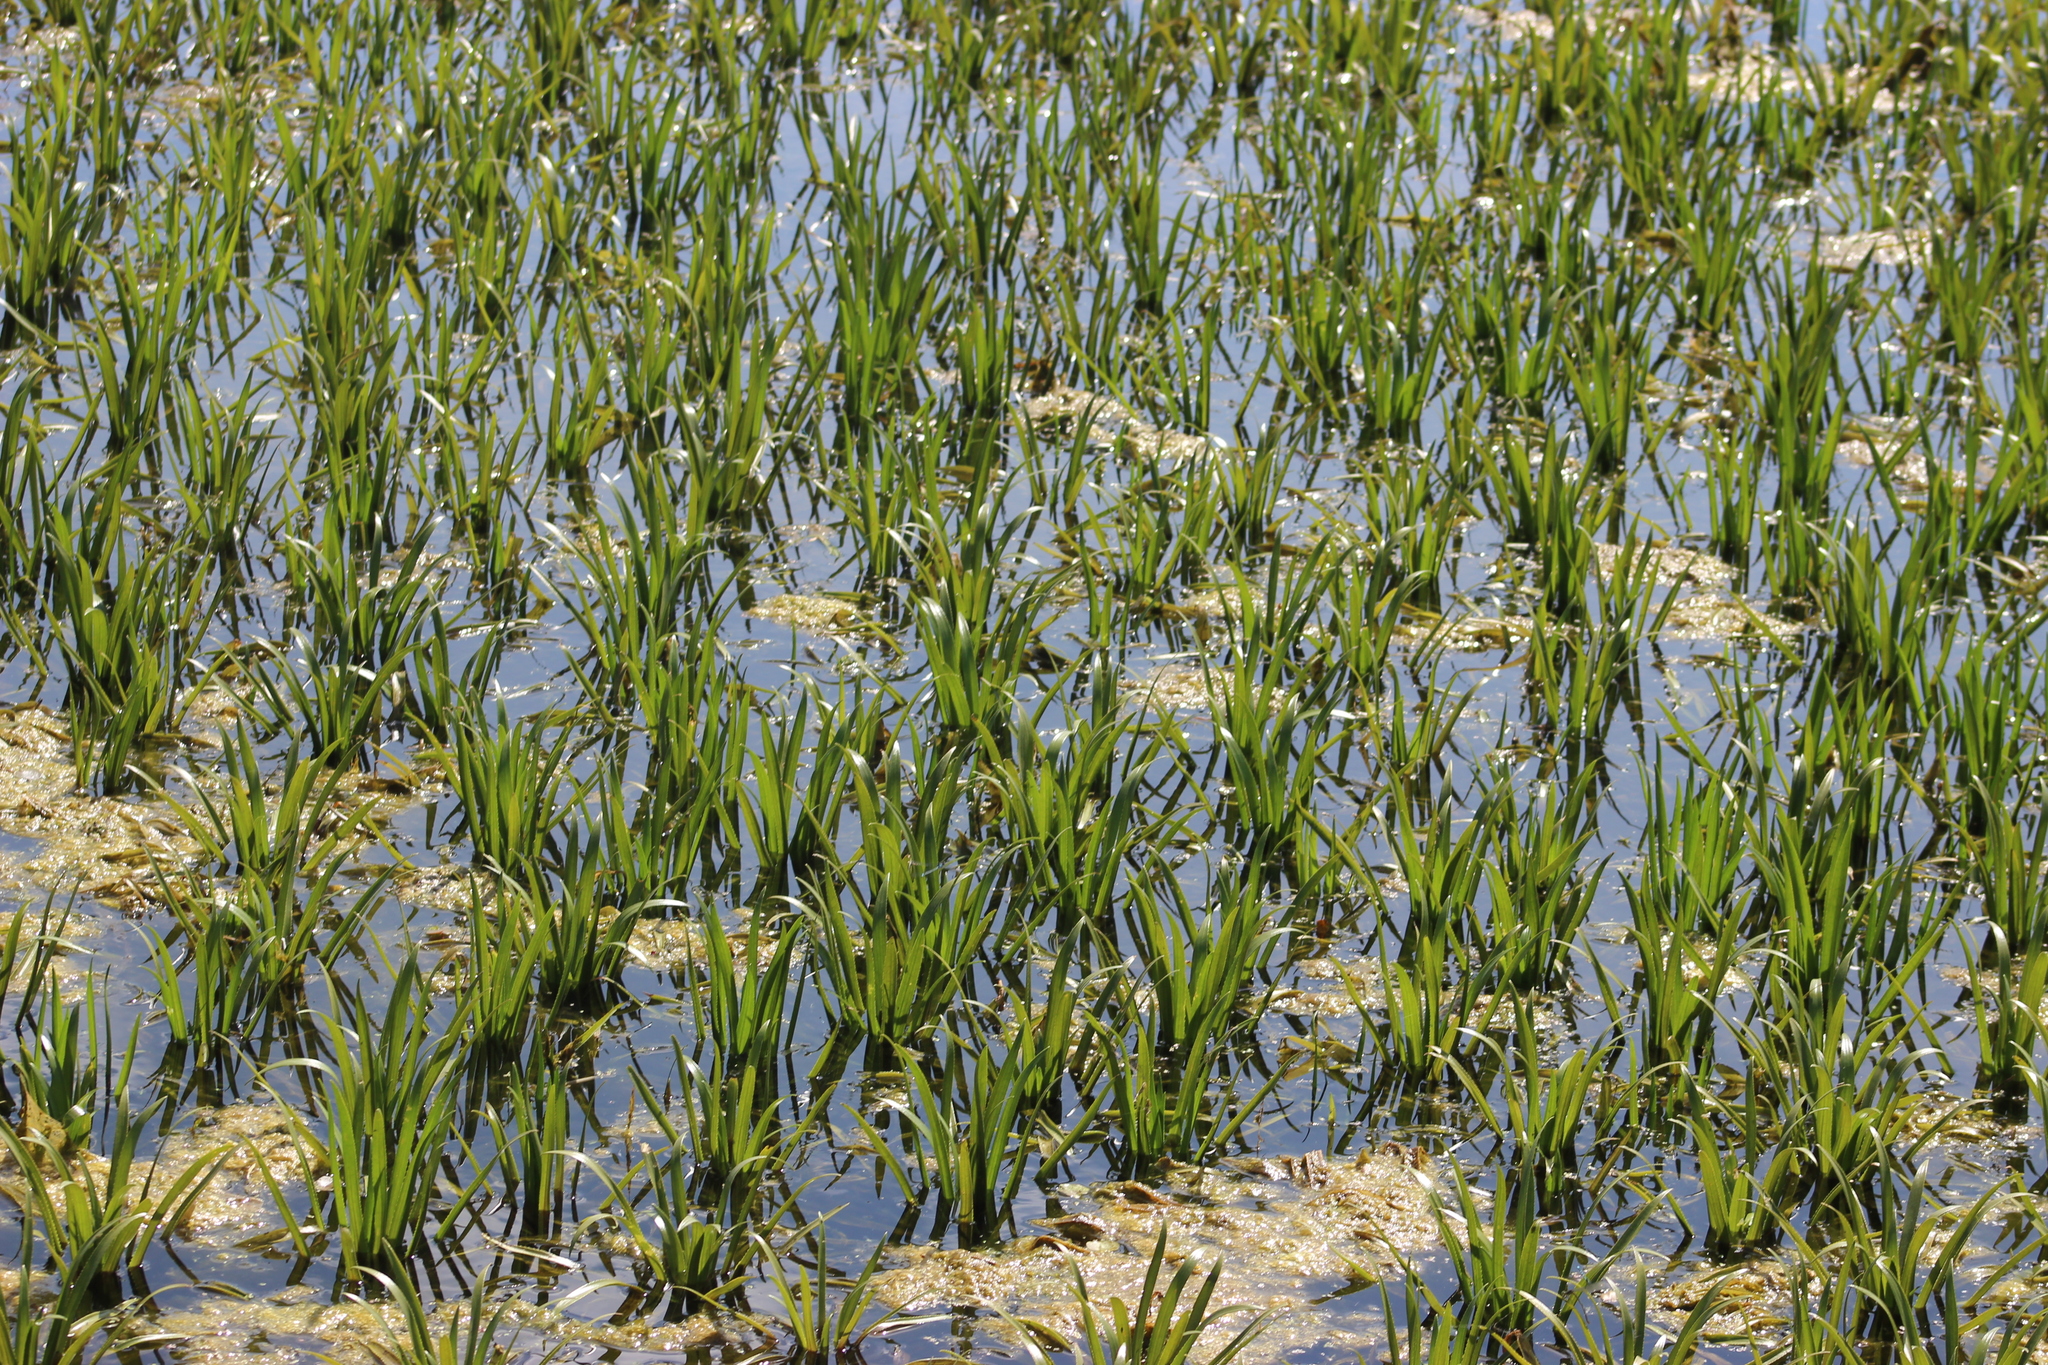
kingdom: Plantae
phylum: Tracheophyta
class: Liliopsida
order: Alismatales
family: Hydrocharitaceae
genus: Stratiotes
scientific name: Stratiotes aloides
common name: Water-soldier
